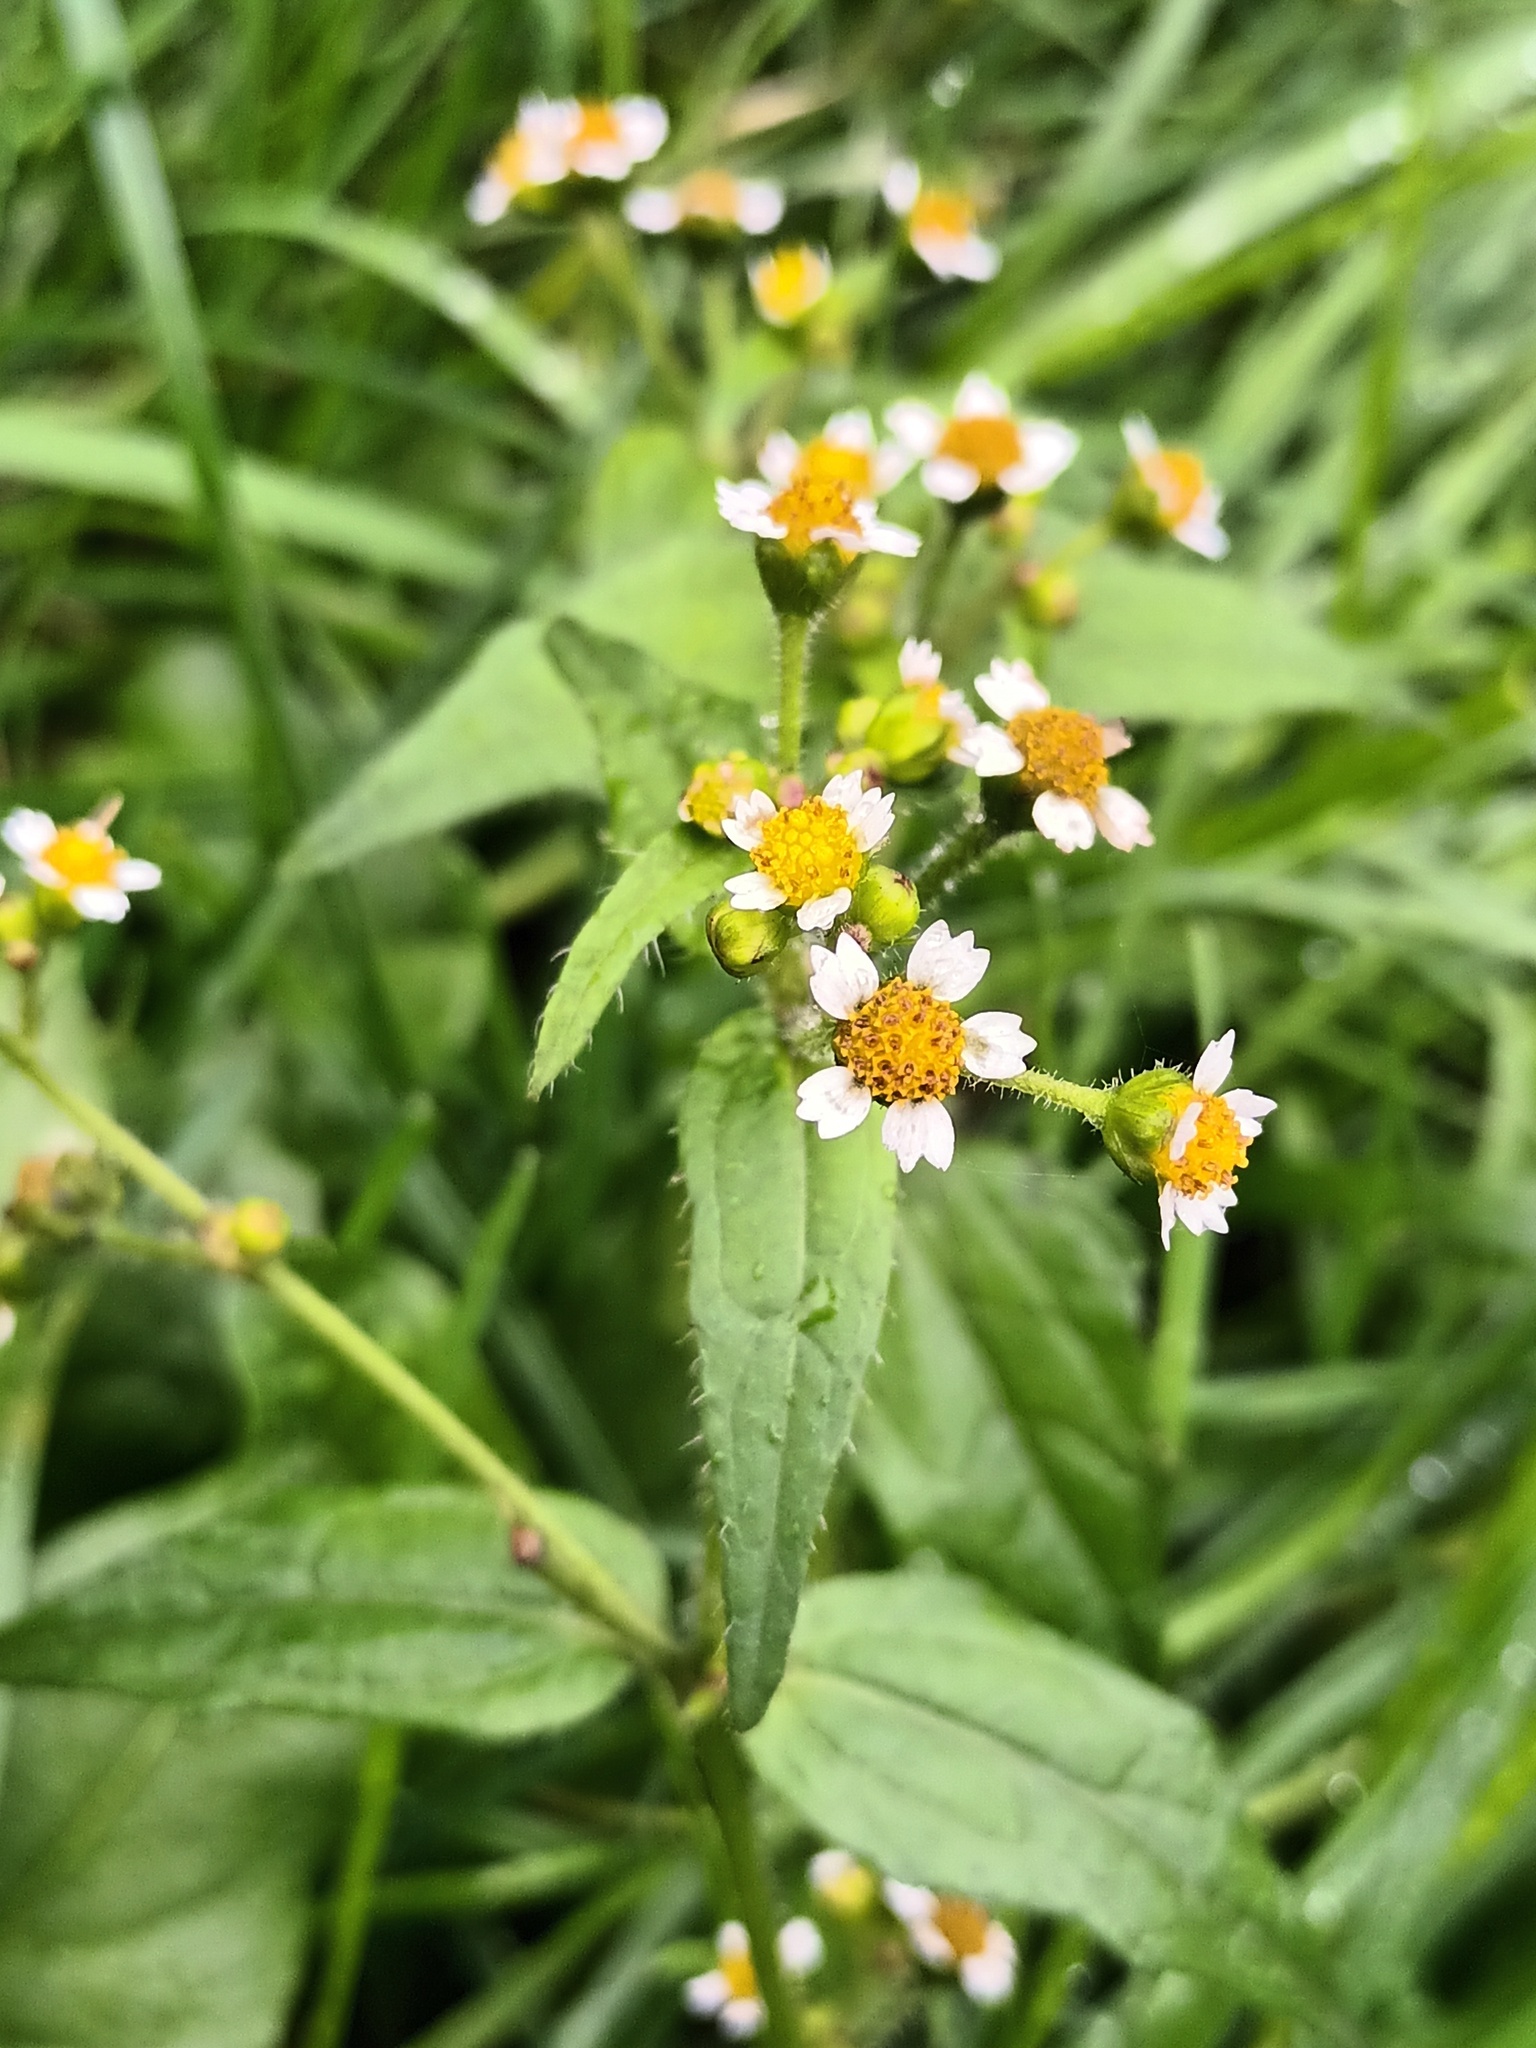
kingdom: Plantae
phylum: Tracheophyta
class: Magnoliopsida
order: Asterales
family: Asteraceae
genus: Galinsoga
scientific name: Galinsoga quadriradiata
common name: Shaggy soldier
